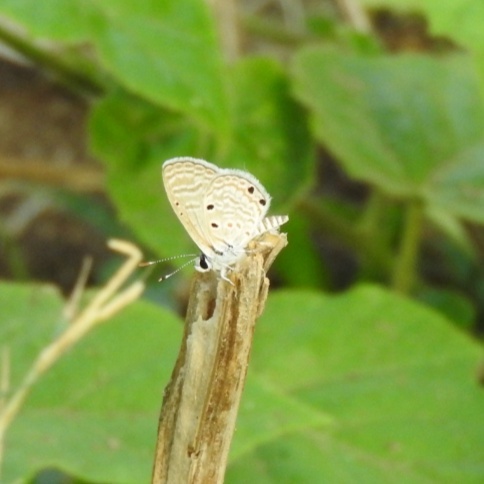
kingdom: Animalia
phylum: Arthropoda
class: Insecta
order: Lepidoptera
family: Lycaenidae
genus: Azanus
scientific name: Azanus ubaldus
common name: Desert babul blue
